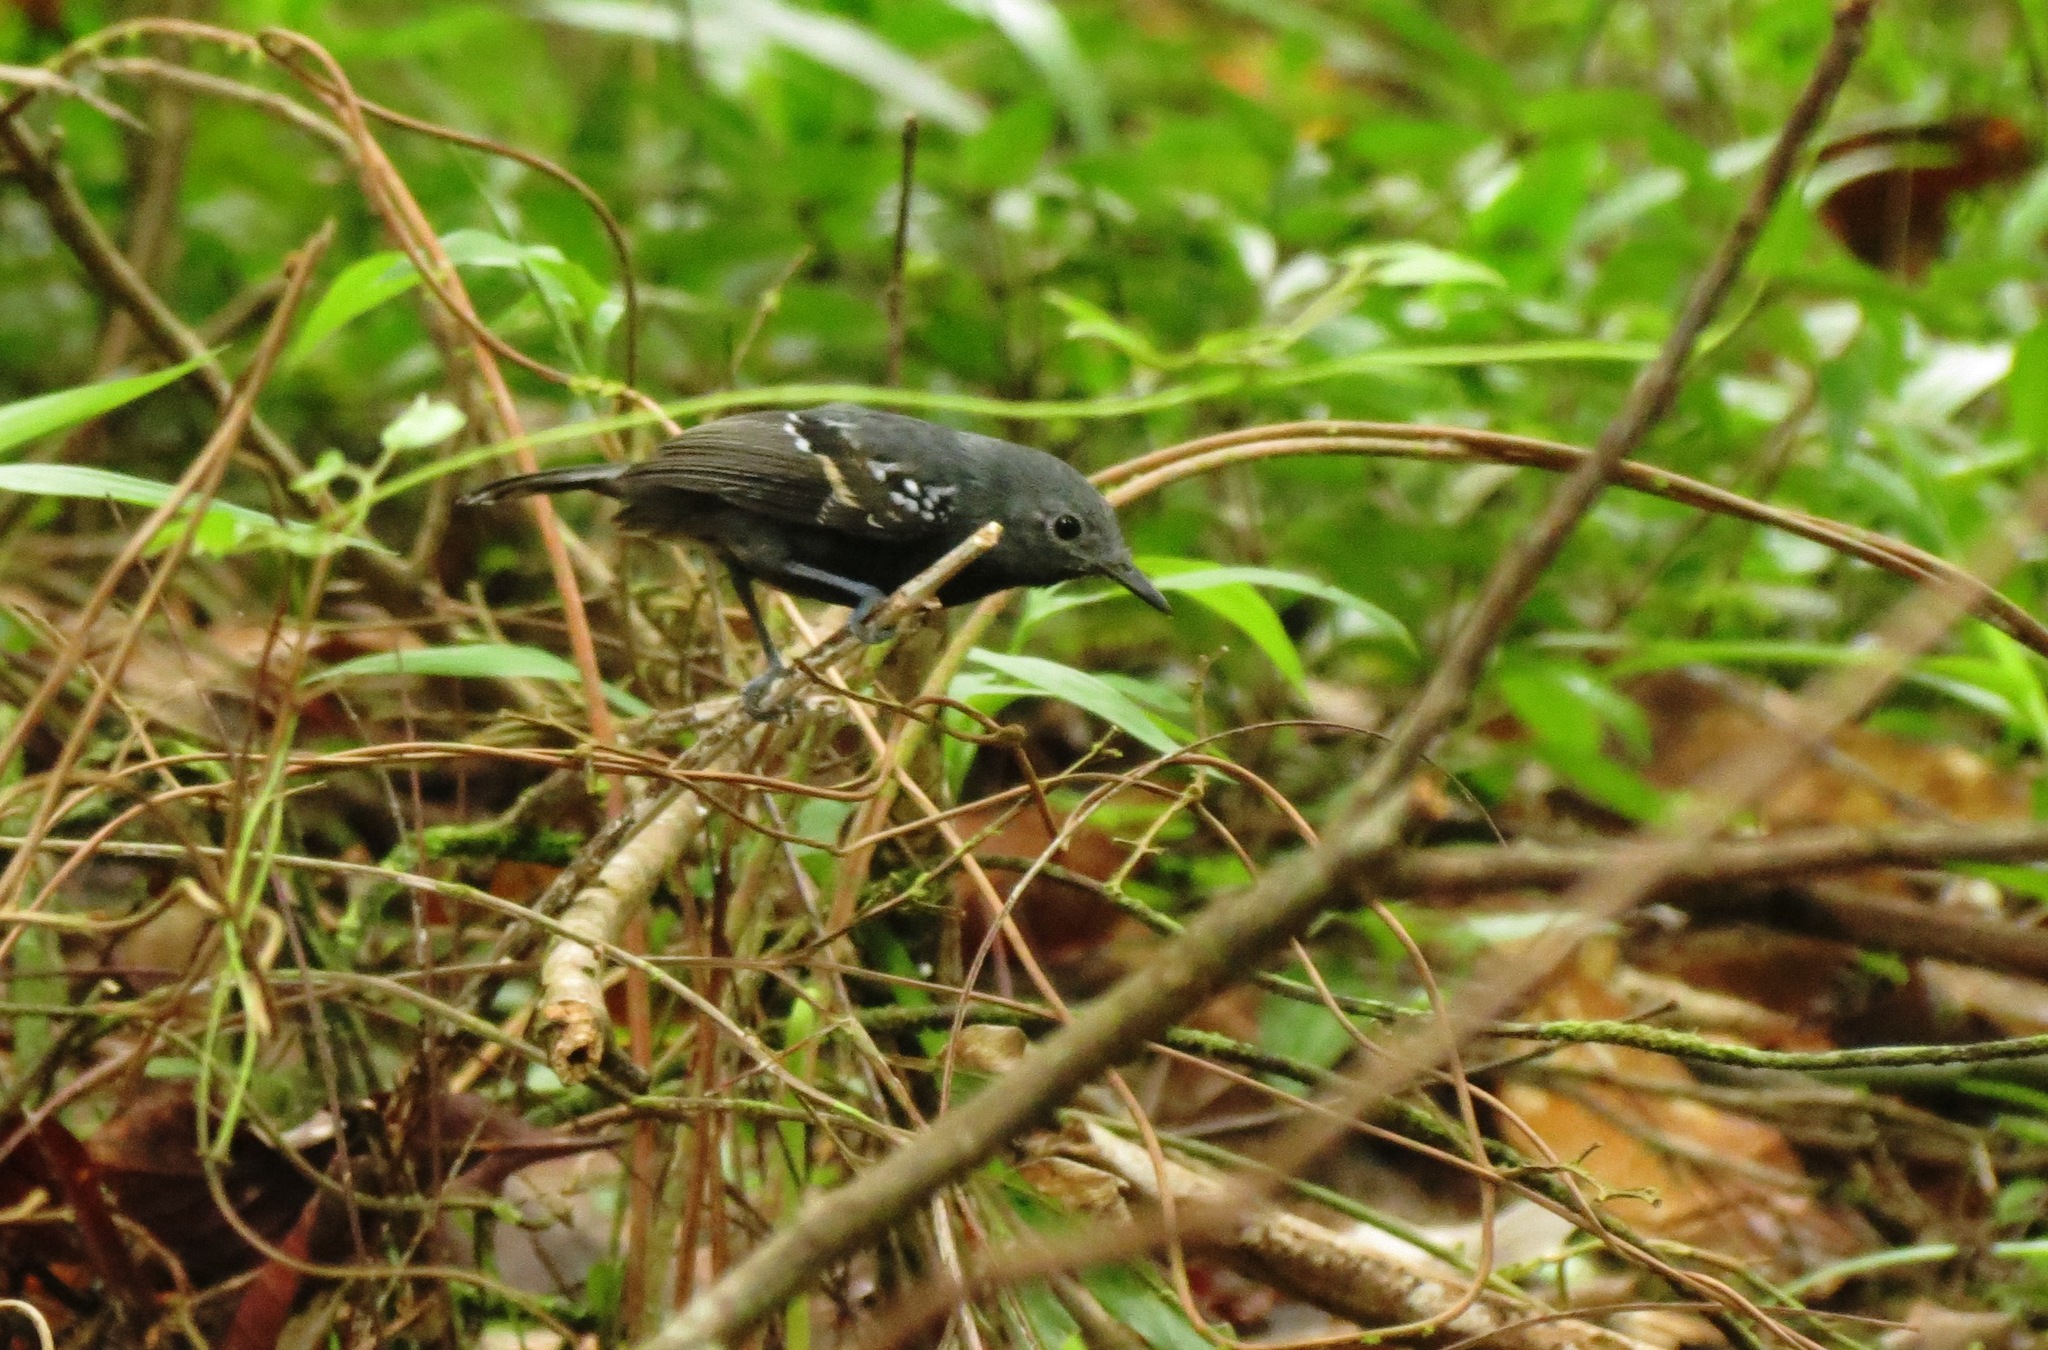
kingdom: Animalia
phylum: Chordata
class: Aves
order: Passeriformes
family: Thamnophilidae
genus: Myrmotherula
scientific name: Myrmotherula axillaris
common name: White-flanked antwren
